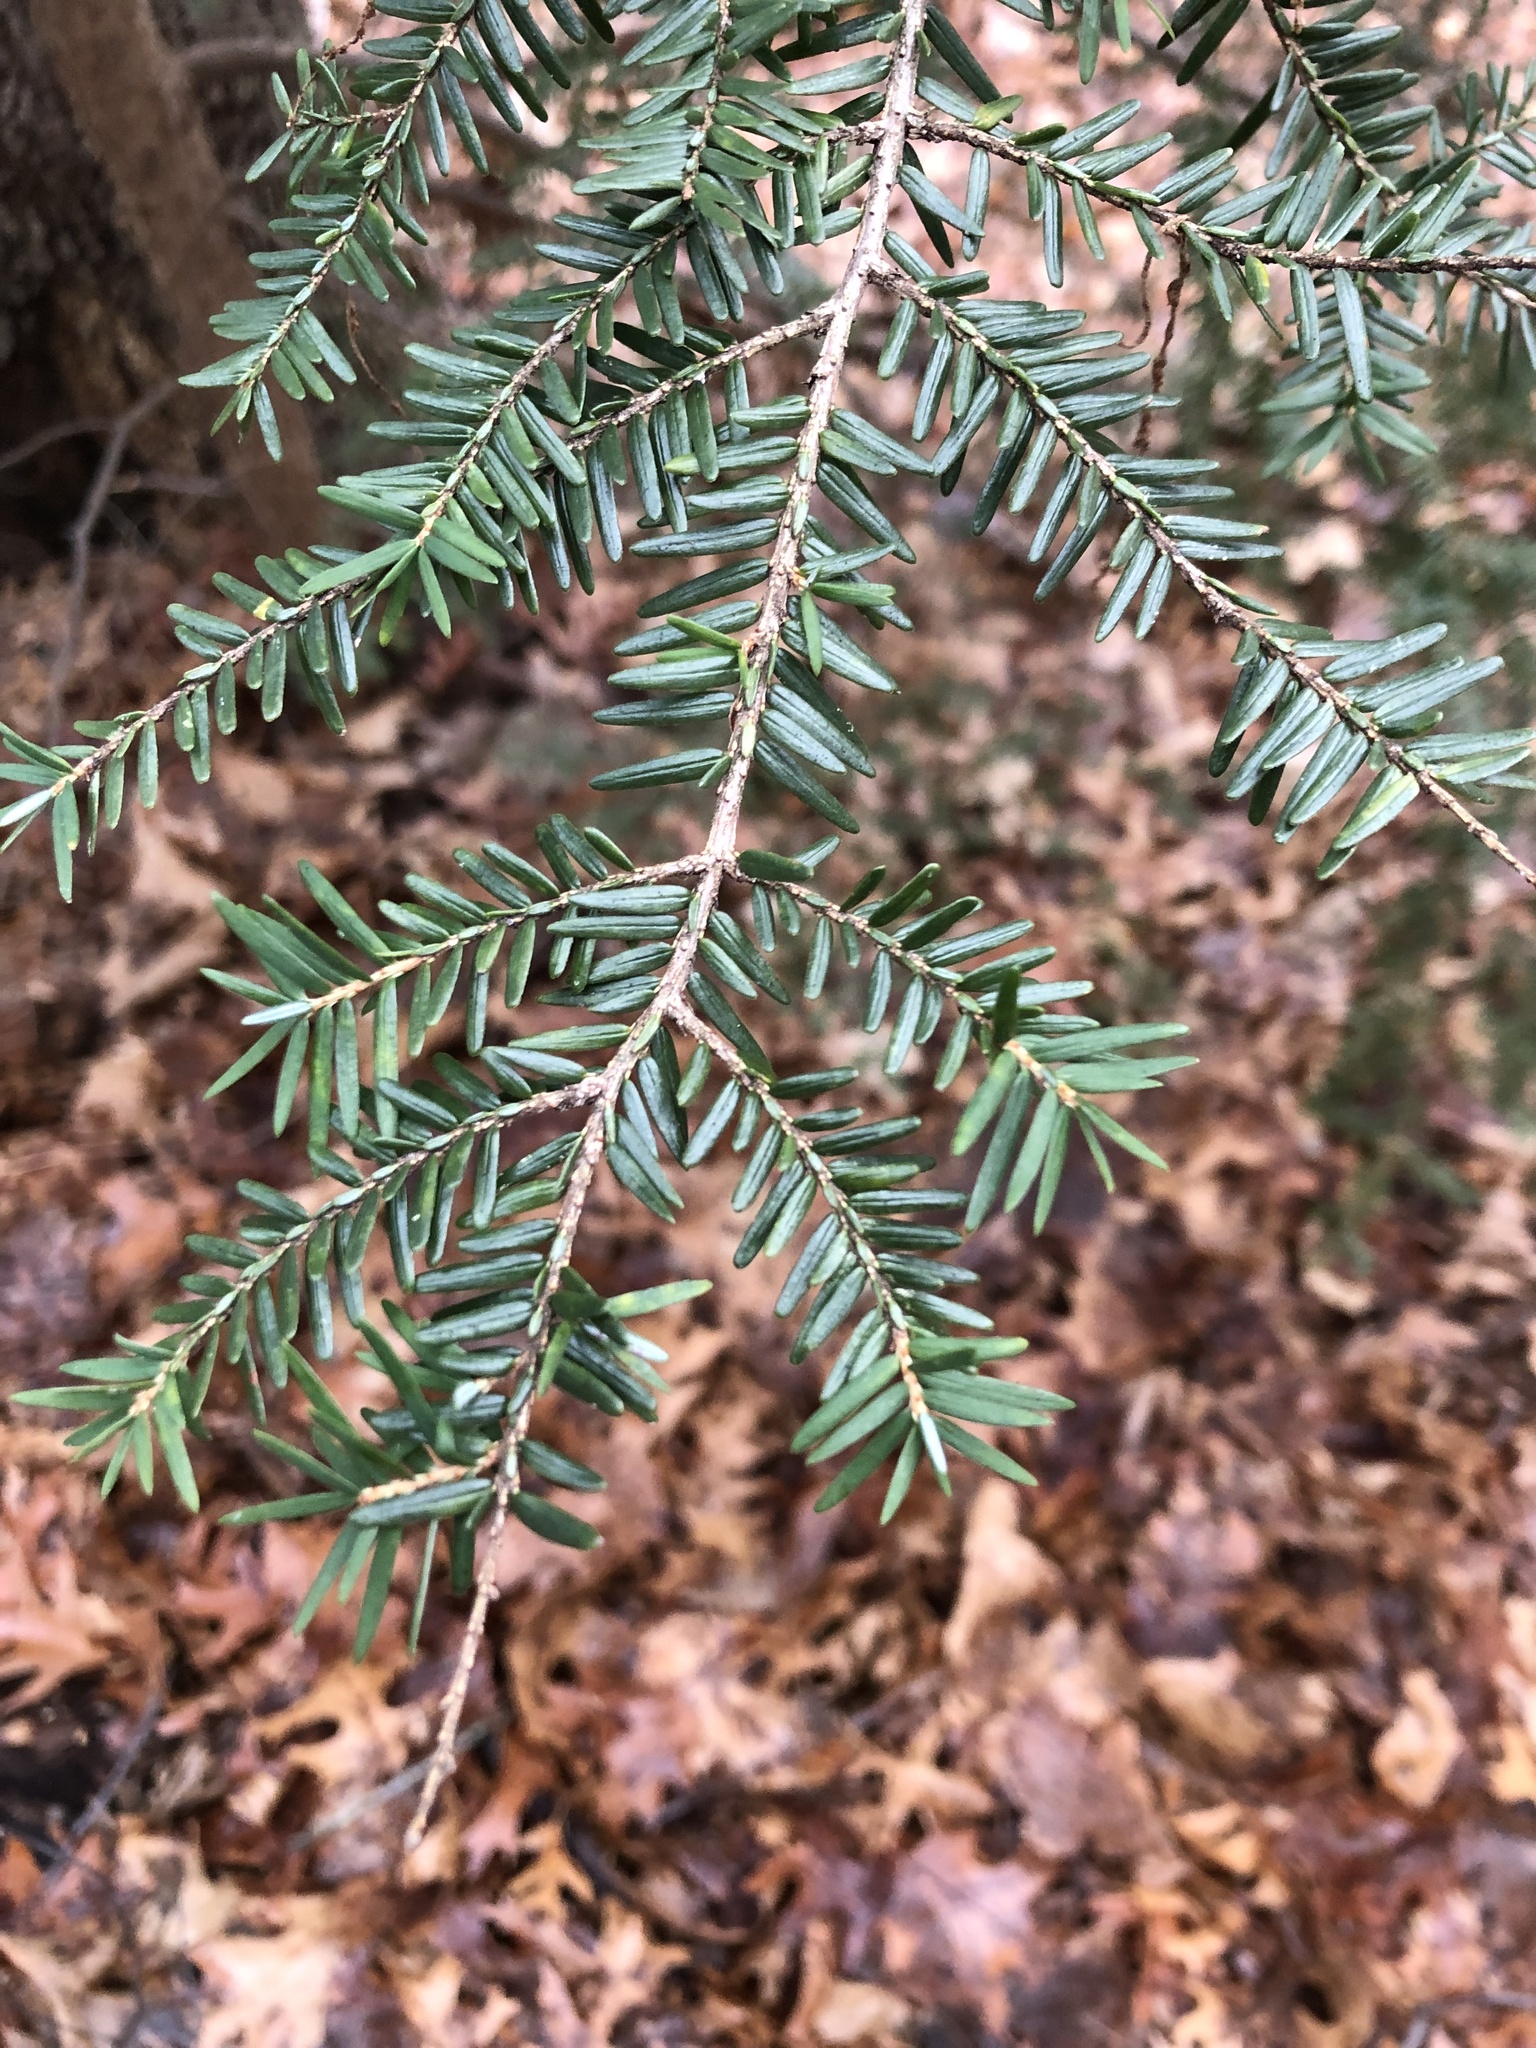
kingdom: Plantae
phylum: Tracheophyta
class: Pinopsida
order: Pinales
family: Pinaceae
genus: Tsuga
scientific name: Tsuga canadensis
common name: Eastern hemlock
